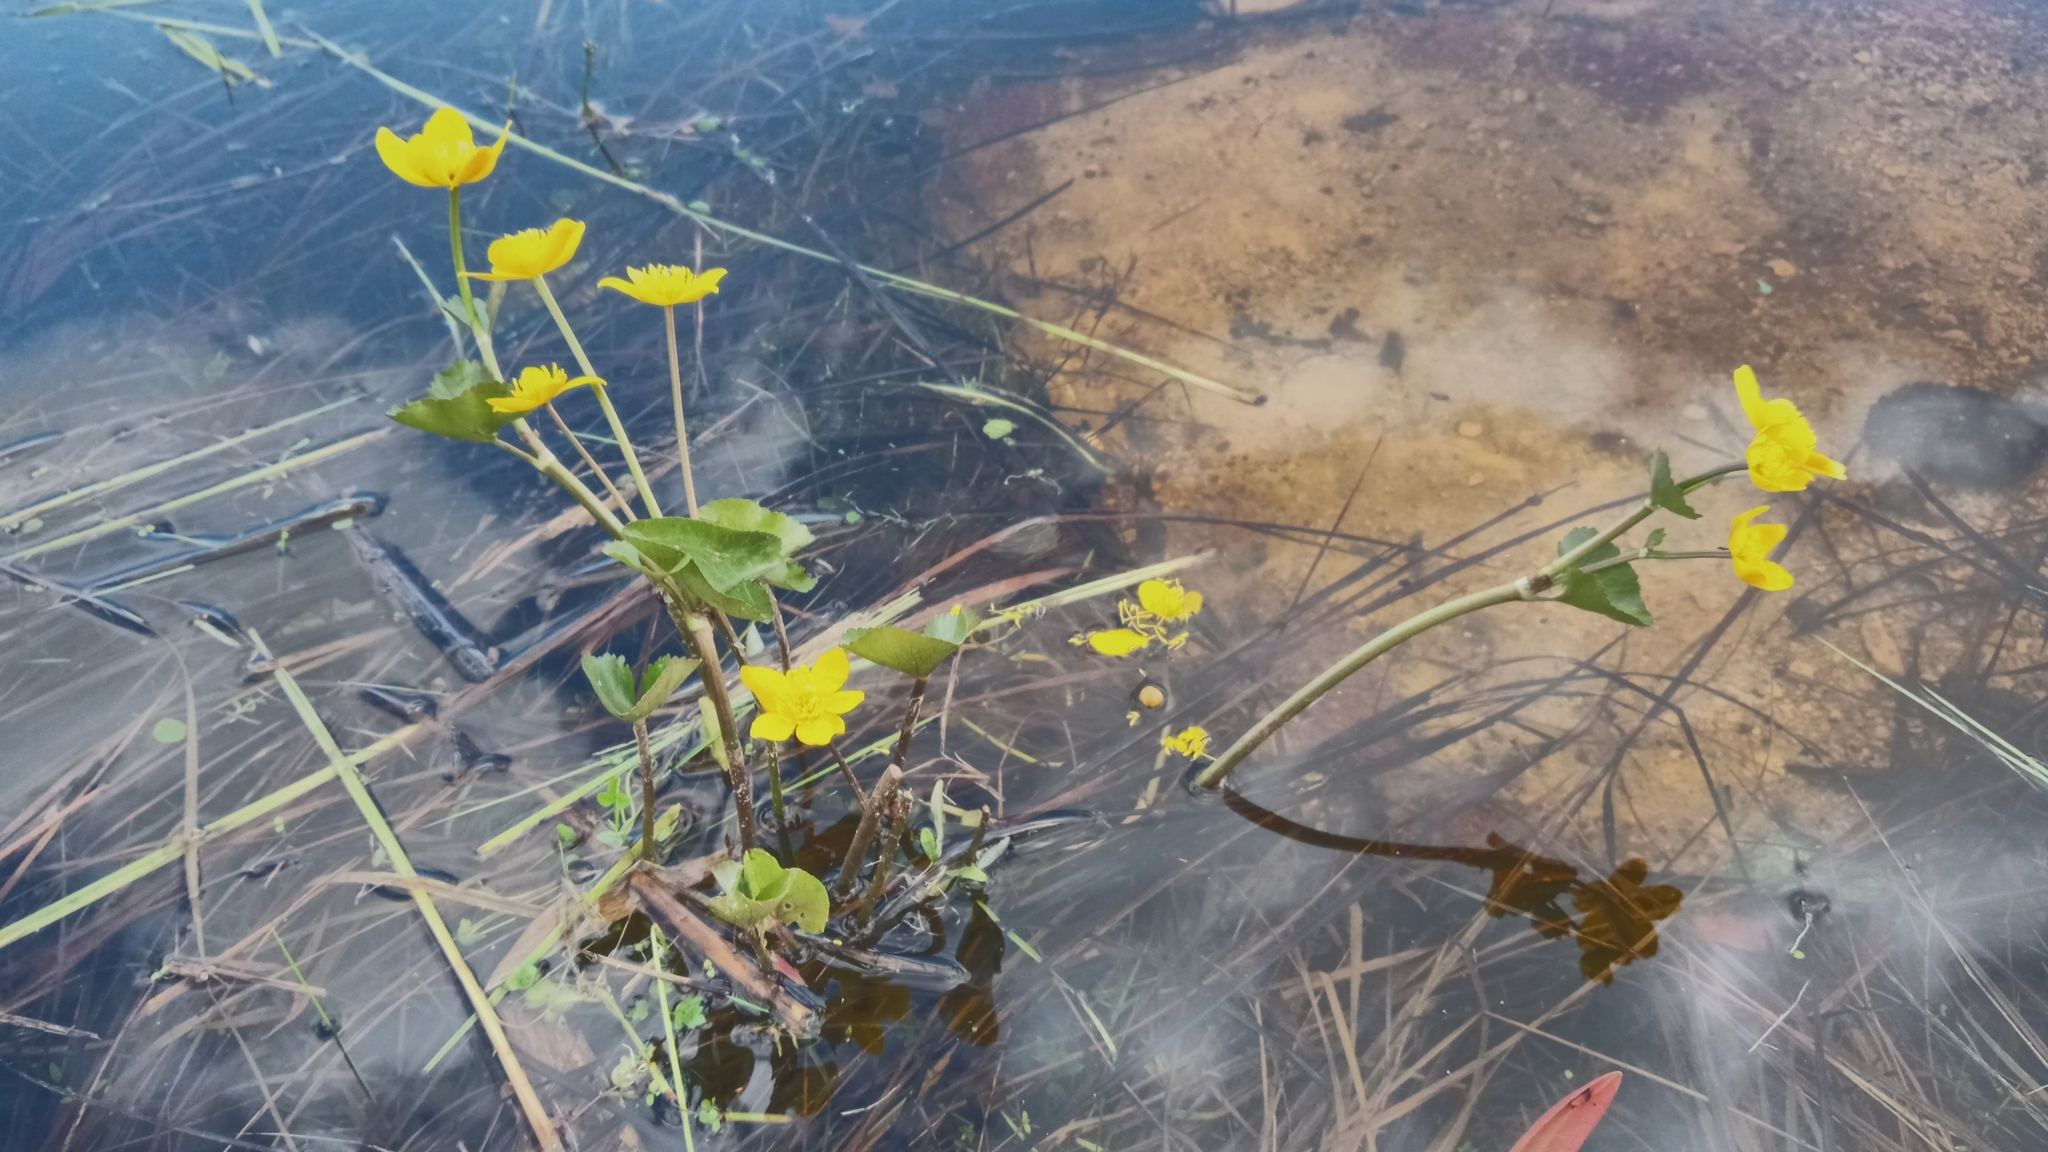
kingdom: Plantae
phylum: Tracheophyta
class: Magnoliopsida
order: Ranunculales
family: Ranunculaceae
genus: Caltha
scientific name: Caltha palustris
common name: Marsh marigold
